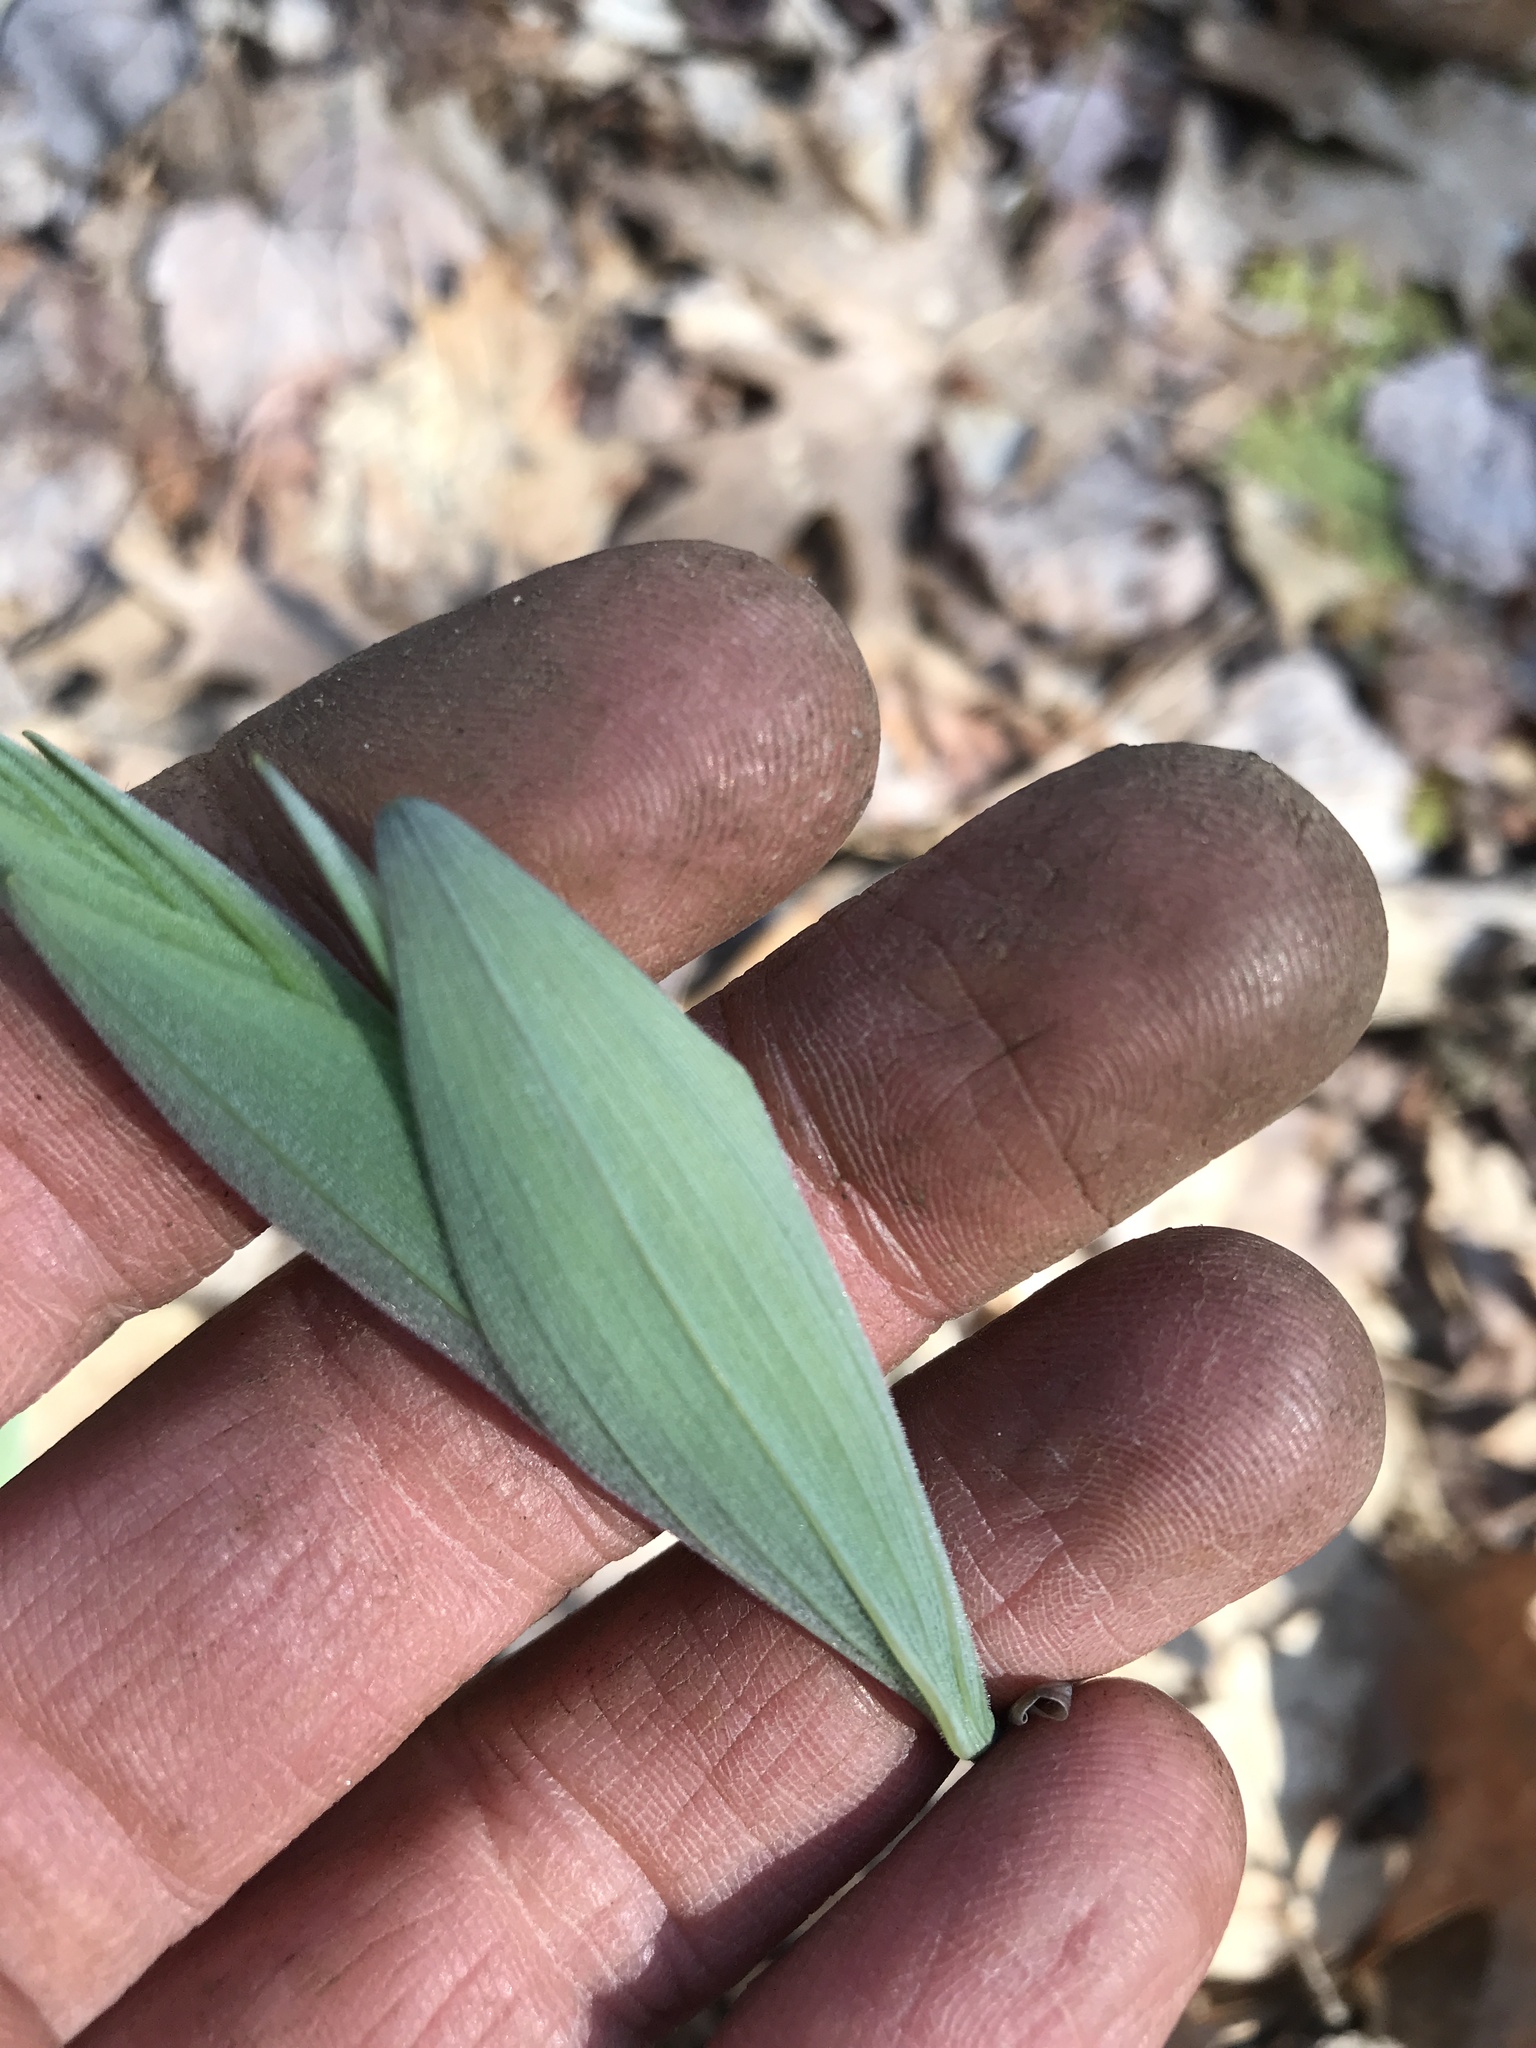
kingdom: Plantae
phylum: Tracheophyta
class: Liliopsida
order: Asparagales
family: Asparagaceae
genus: Polygonatum
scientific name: Polygonatum pubescens
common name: Downy solomon's seal
